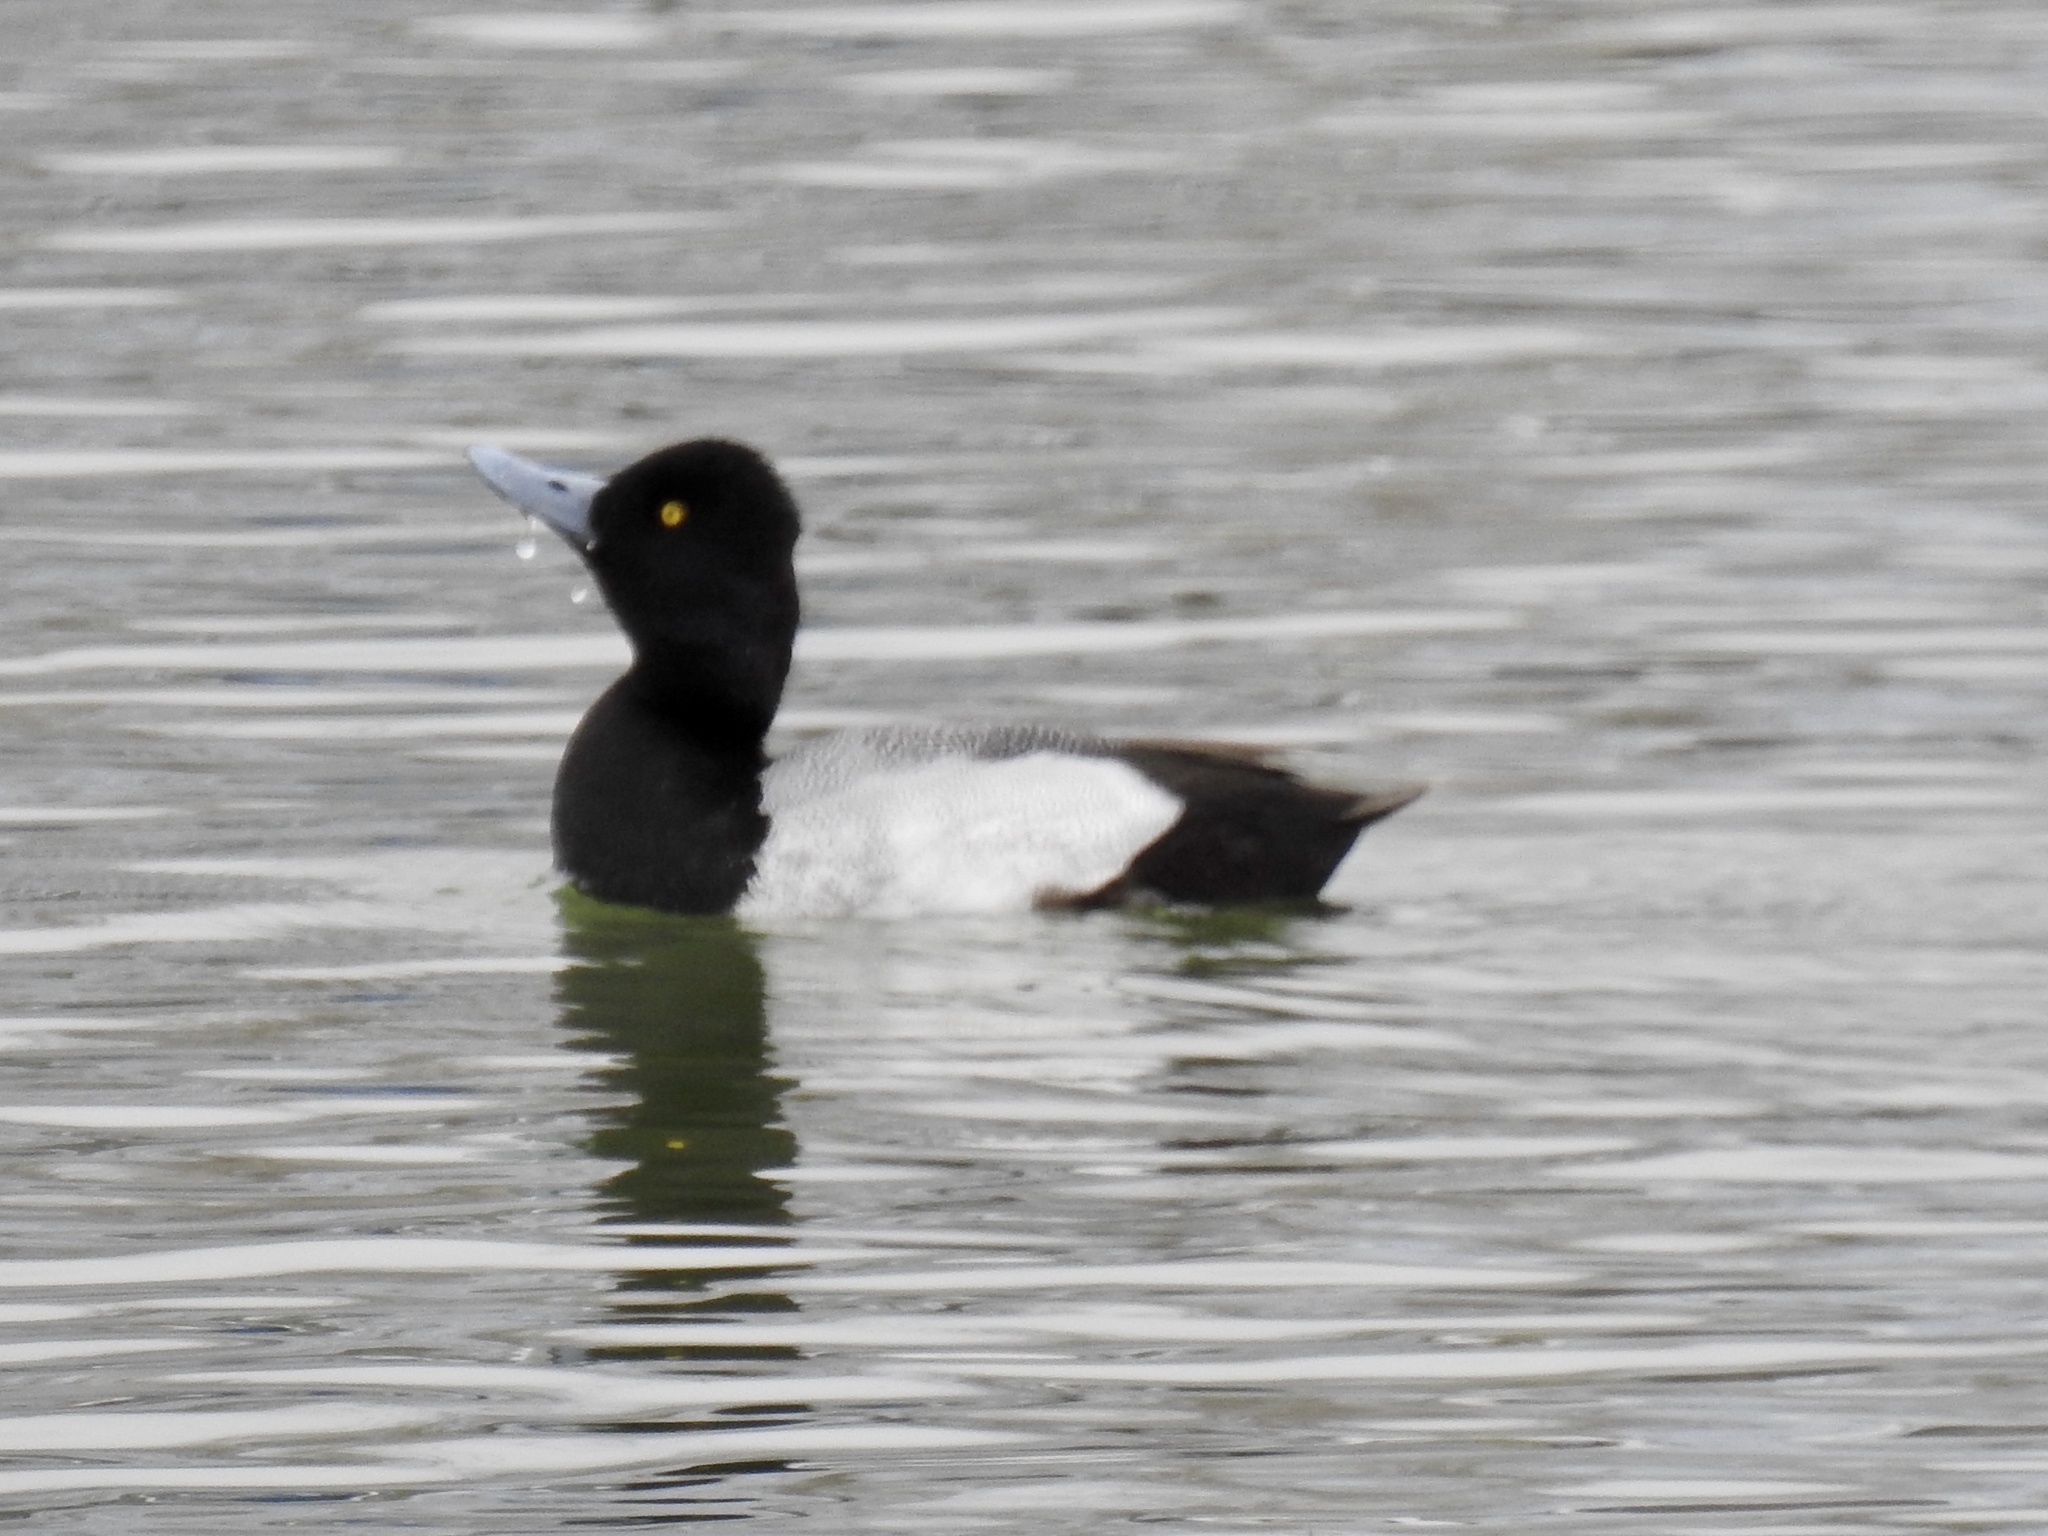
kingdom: Animalia
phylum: Chordata
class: Aves
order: Anseriformes
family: Anatidae
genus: Aythya
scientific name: Aythya affinis
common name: Lesser scaup
